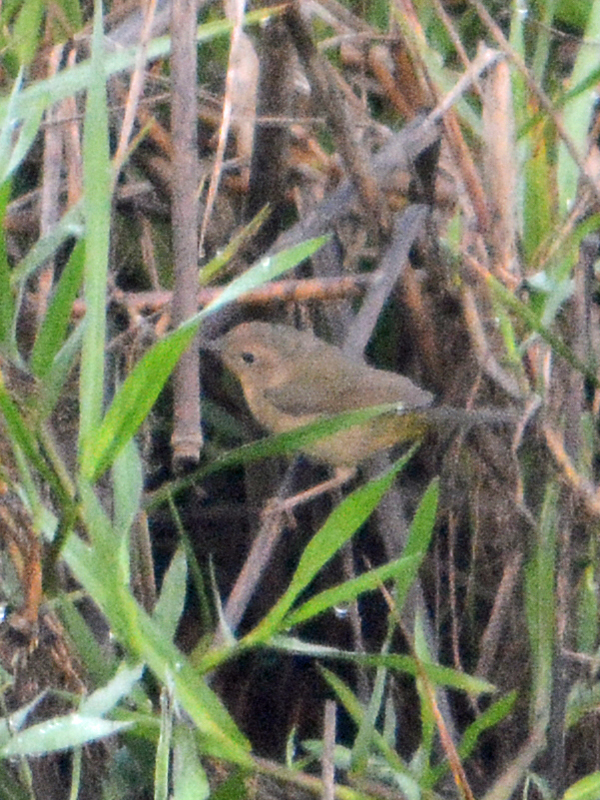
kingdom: Animalia
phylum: Chordata
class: Aves
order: Passeriformes
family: Parulidae
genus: Geothlypis
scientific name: Geothlypis trichas
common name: Common yellowthroat
